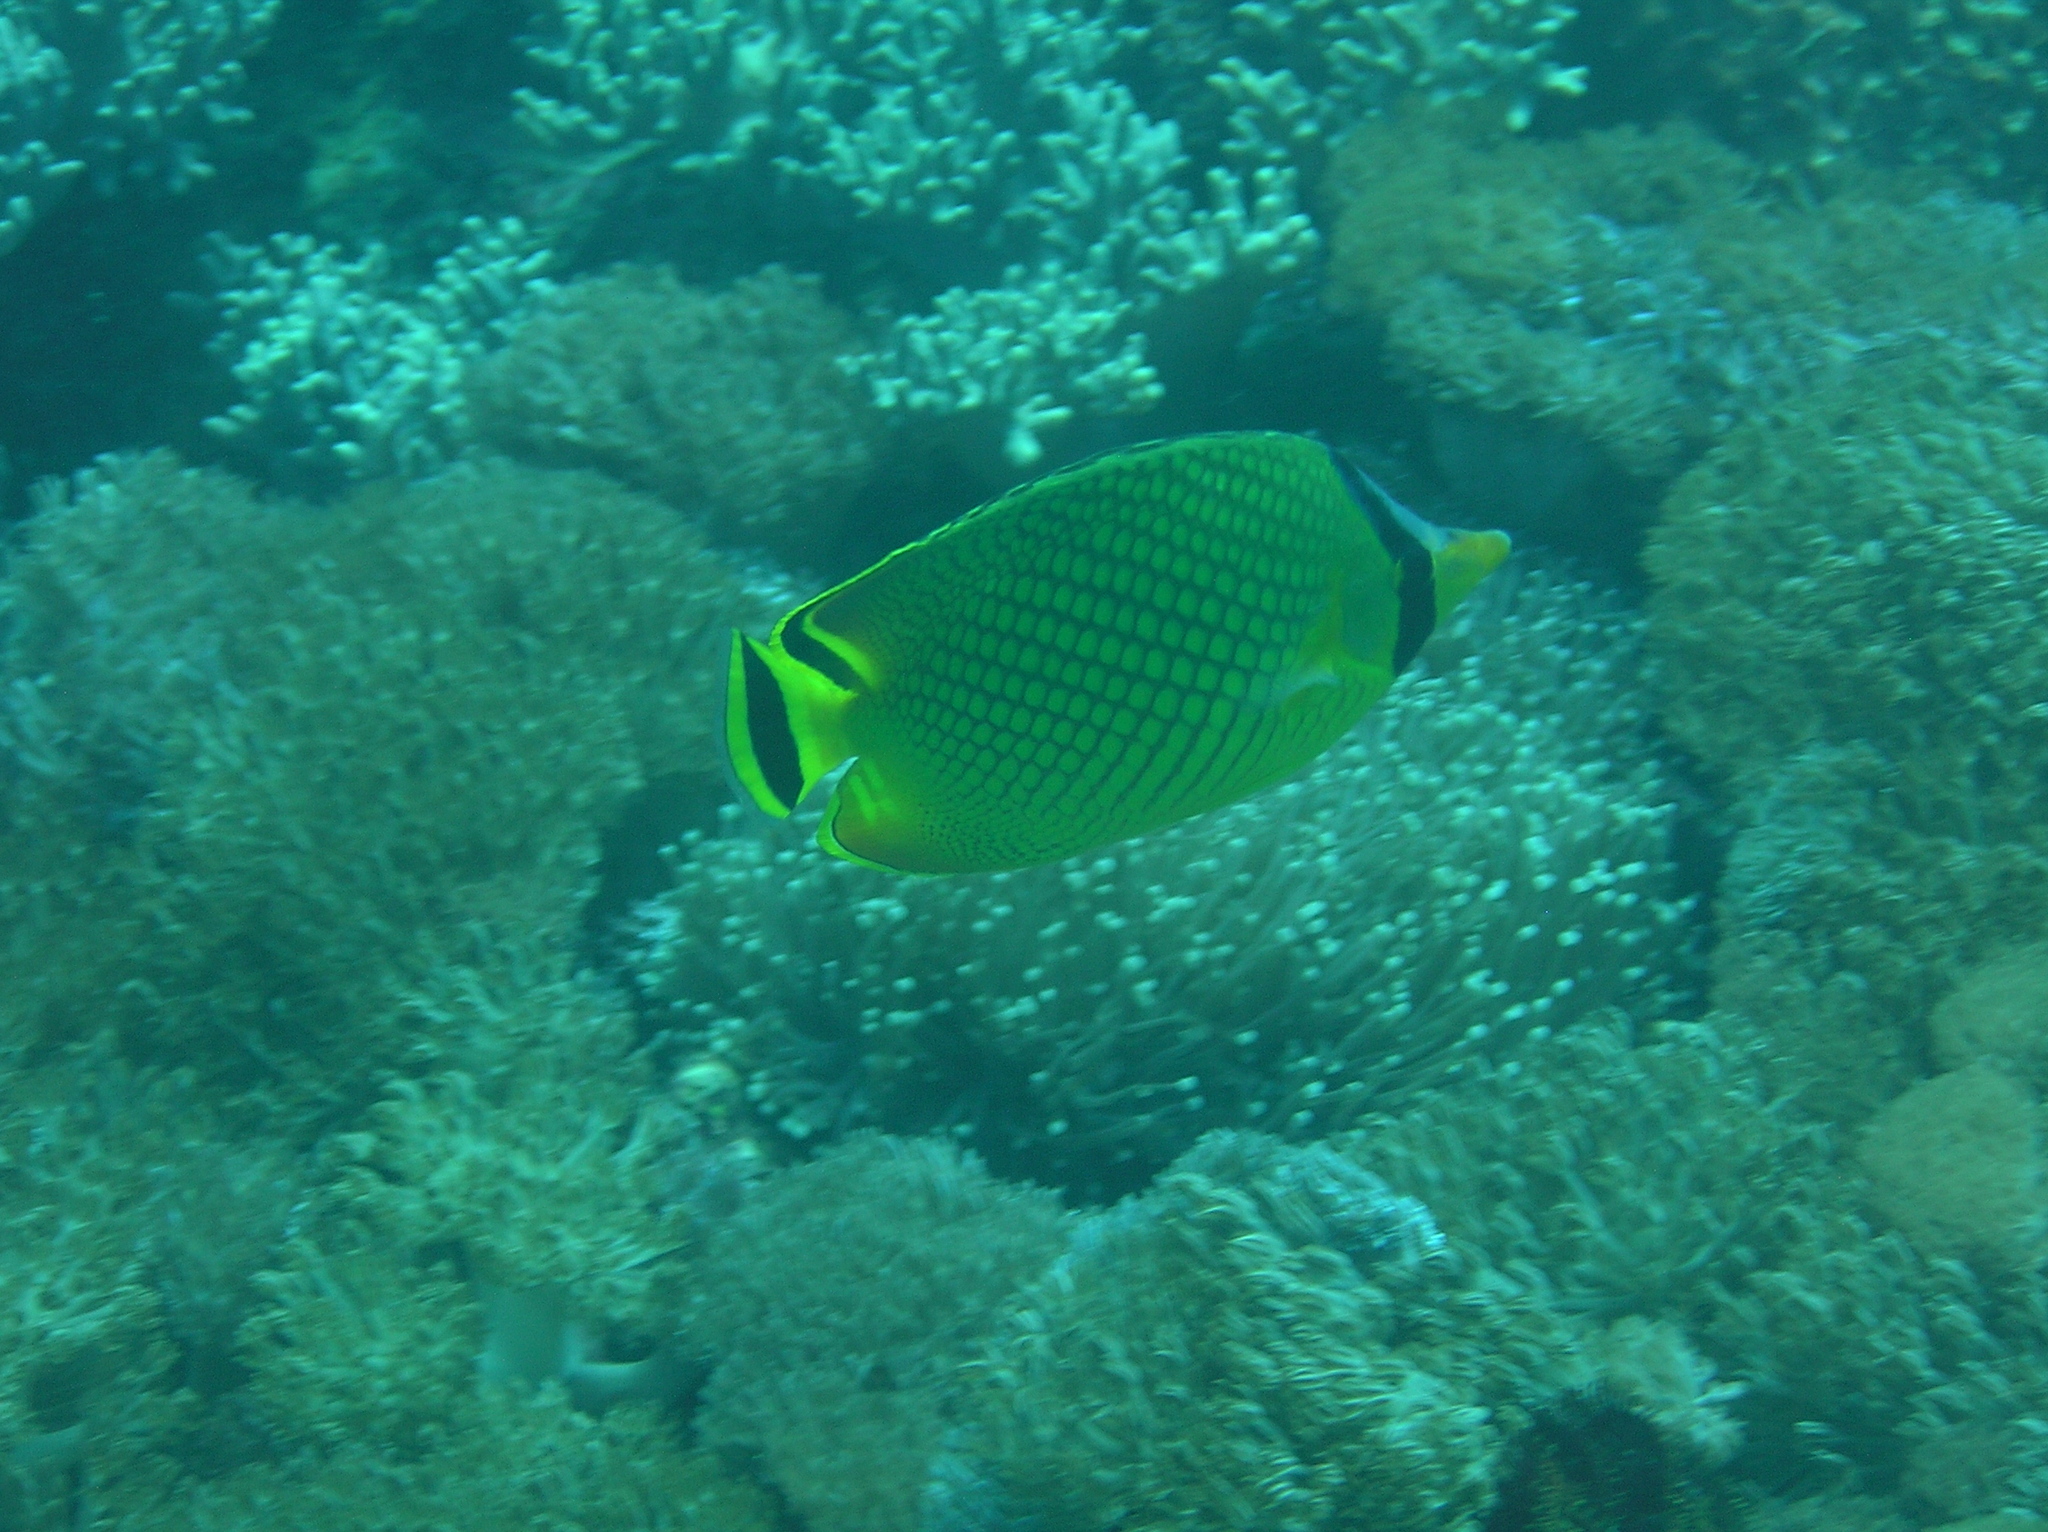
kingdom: Animalia
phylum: Chordata
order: Perciformes
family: Chaetodontidae
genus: Chaetodon
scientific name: Chaetodon rafflesii
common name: Latticed butterflyfish
